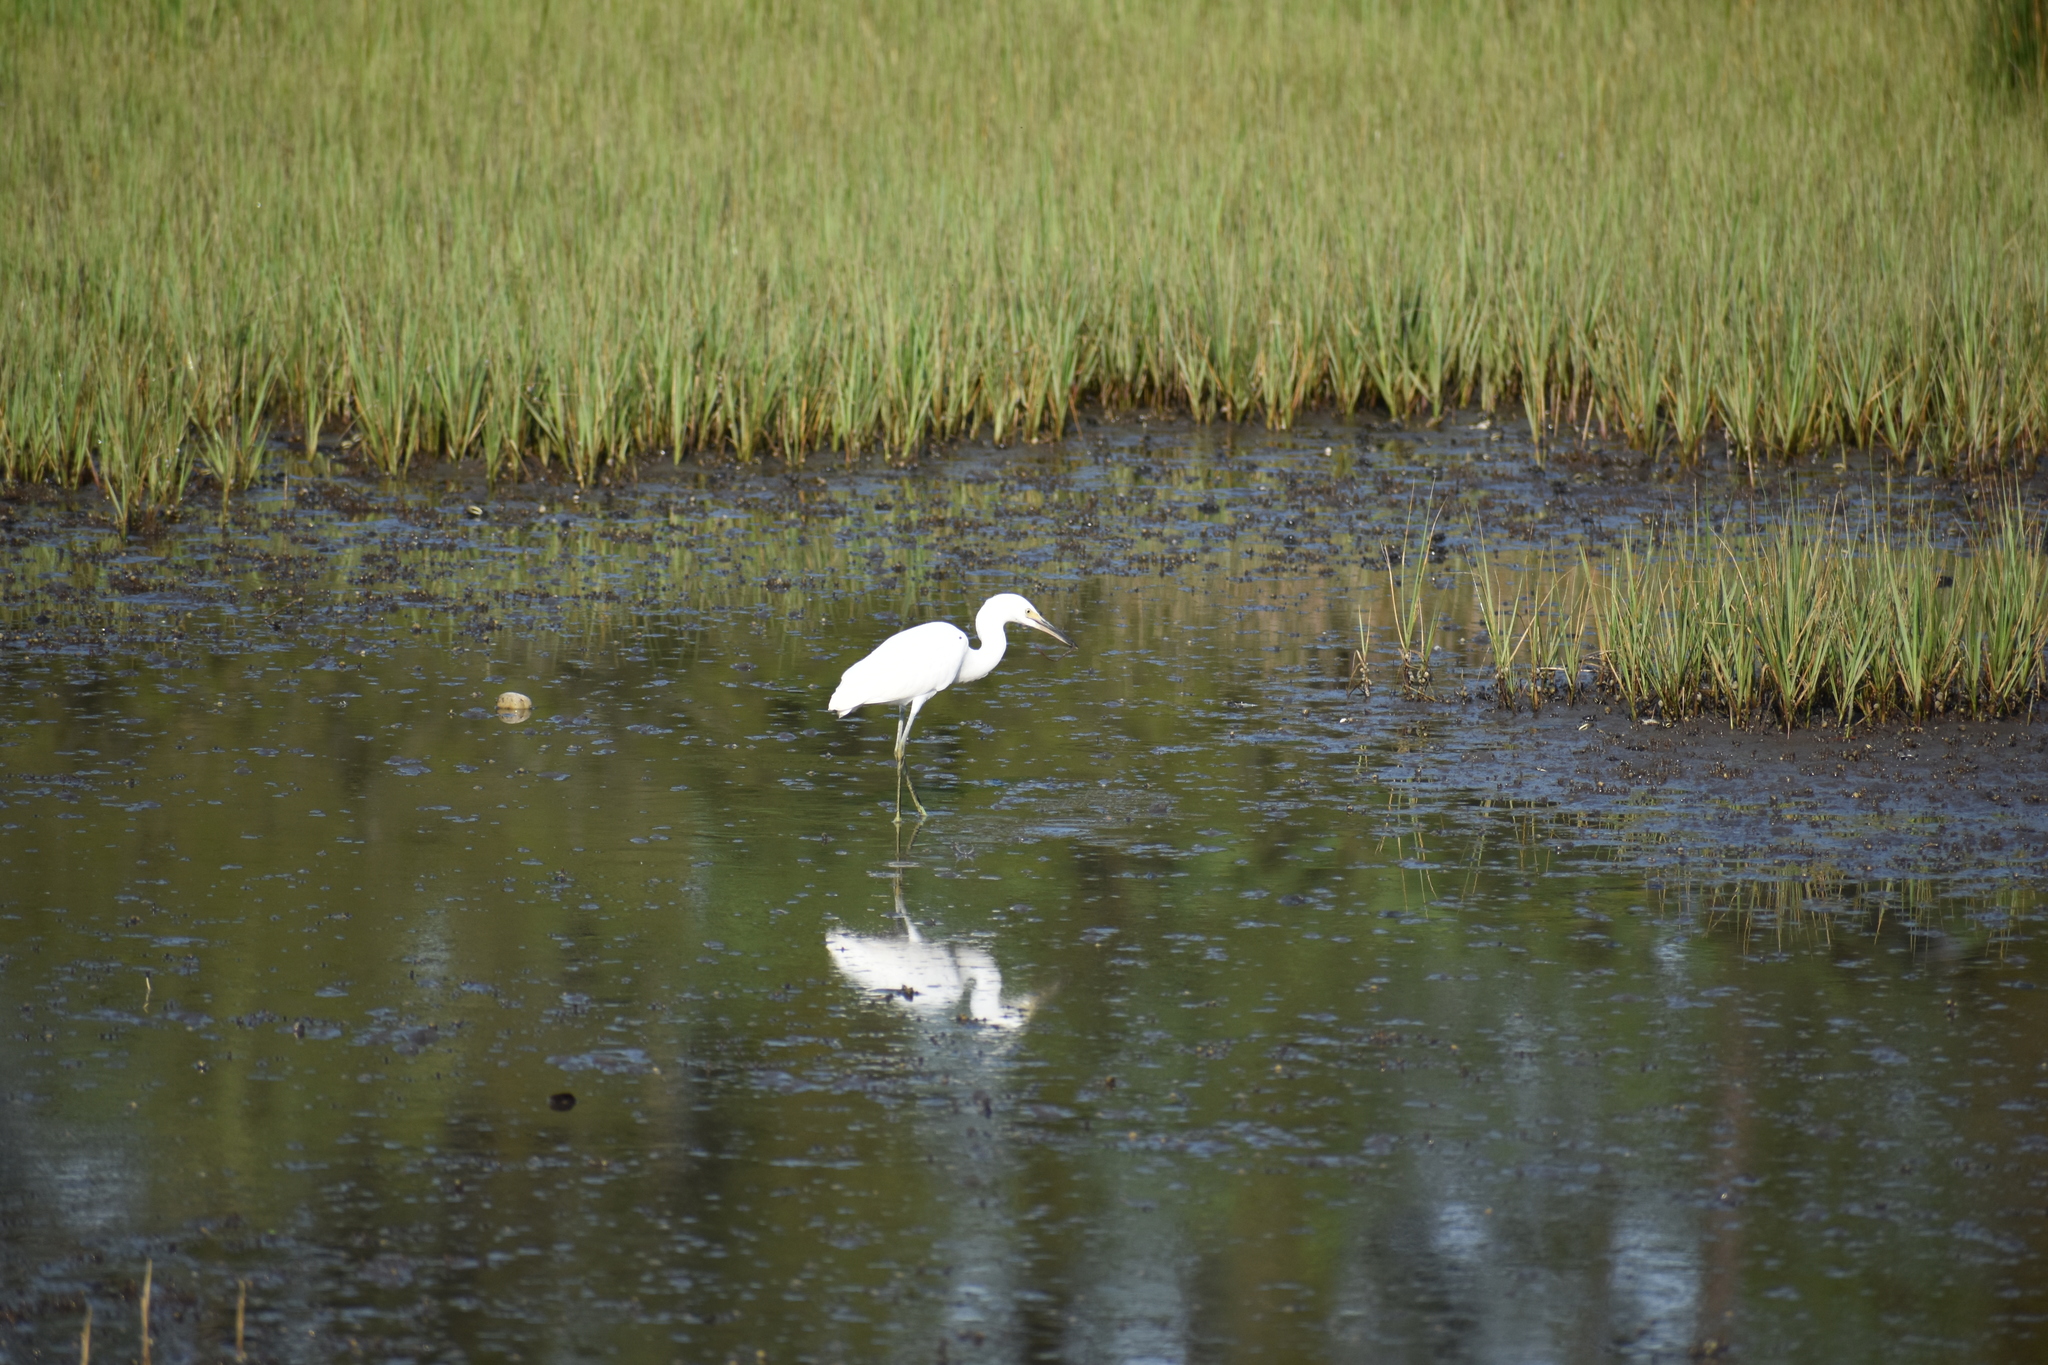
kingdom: Animalia
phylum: Chordata
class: Aves
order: Pelecaniformes
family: Ardeidae
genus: Egretta
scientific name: Egretta thula
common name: Snowy egret
